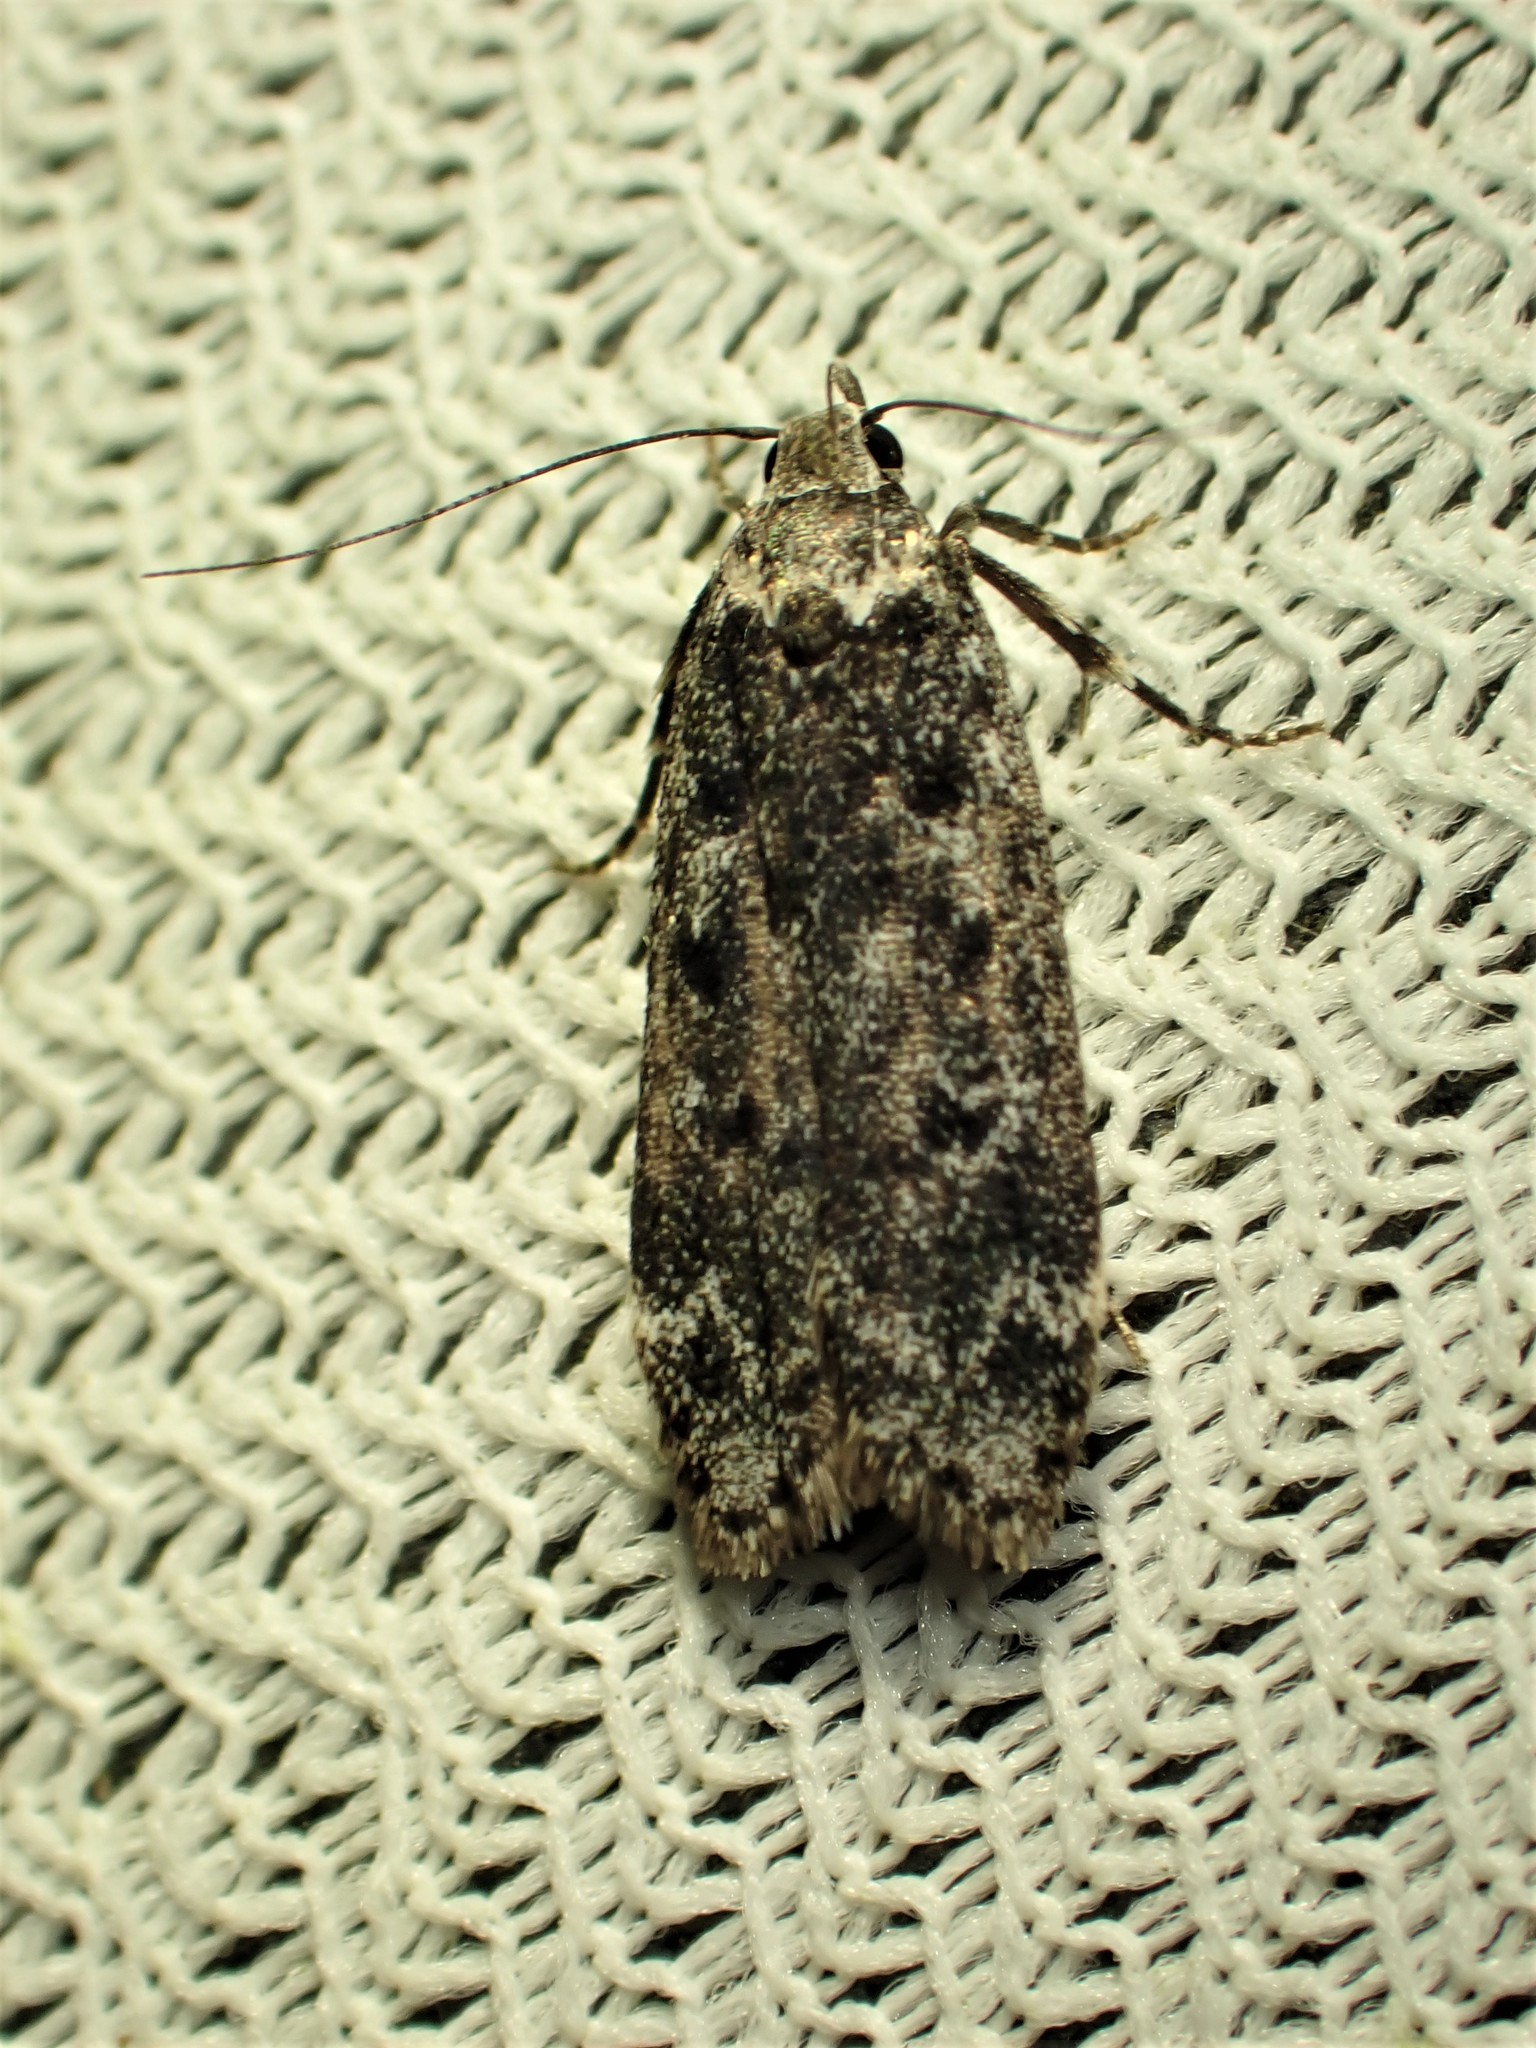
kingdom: Animalia
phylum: Arthropoda
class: Insecta
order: Lepidoptera
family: Gelechiidae
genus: Anacampsis
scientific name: Anacampsis niveopulvella
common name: Pale-headed aspen leafroller moth
